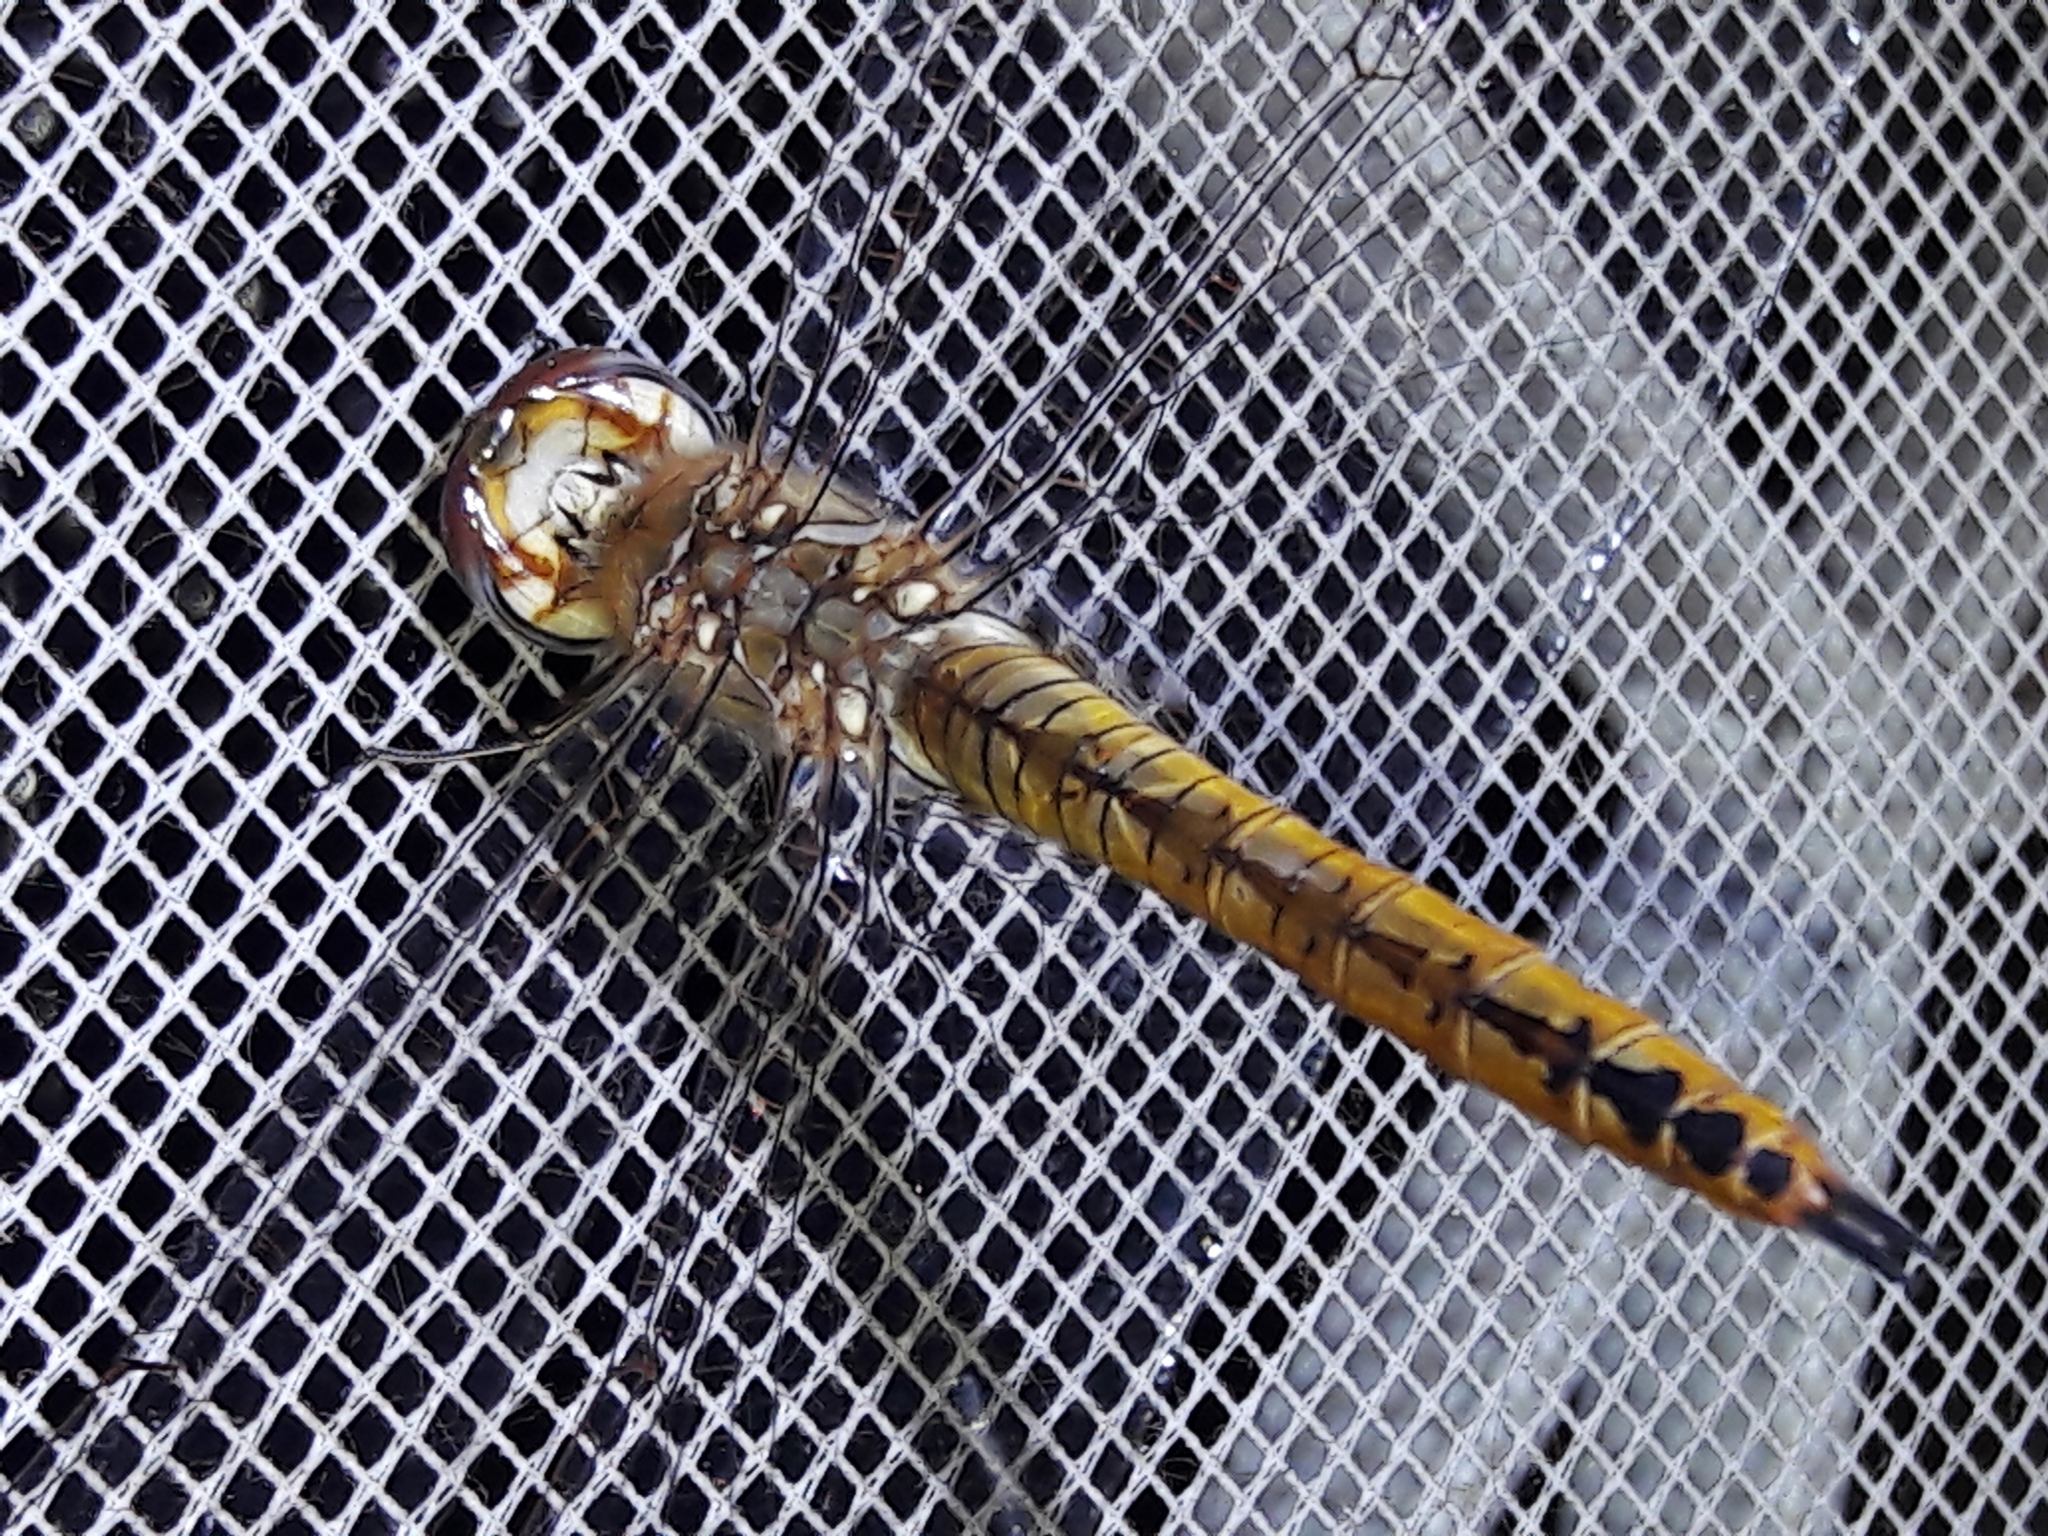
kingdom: Animalia
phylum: Arthropoda
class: Insecta
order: Odonata
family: Libellulidae
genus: Pantala
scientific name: Pantala flavescens
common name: Wandering glider
